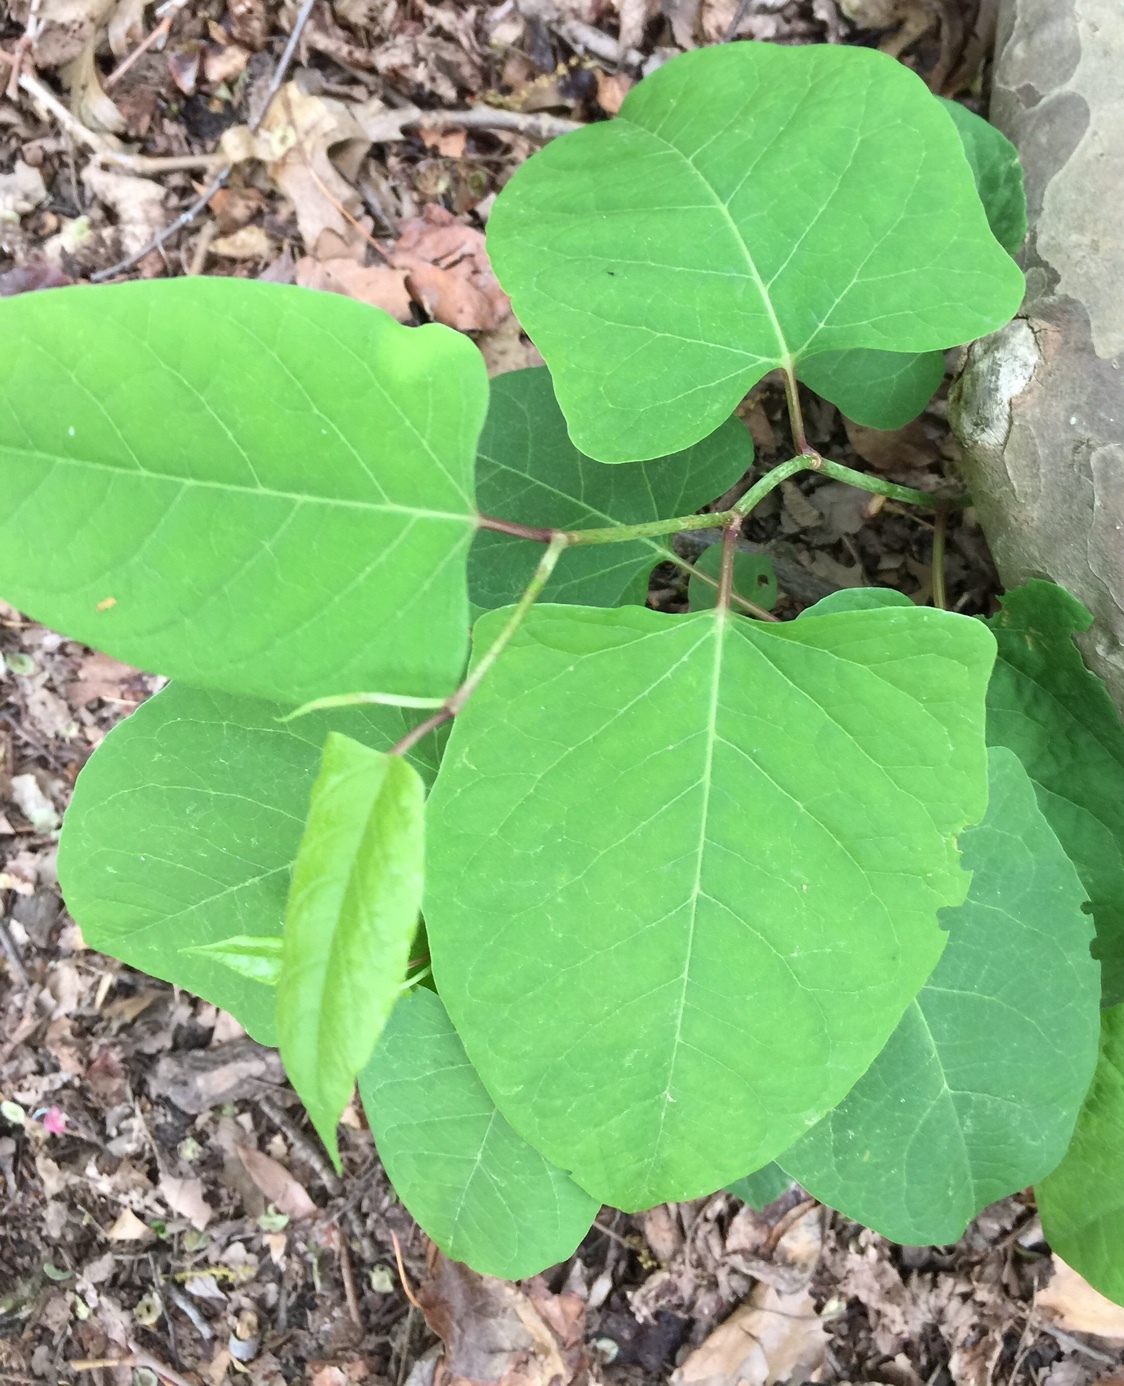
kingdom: Plantae
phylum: Tracheophyta
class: Magnoliopsida
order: Caryophyllales
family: Polygonaceae
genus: Reynoutria
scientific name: Reynoutria japonica
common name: Japanese knotweed
